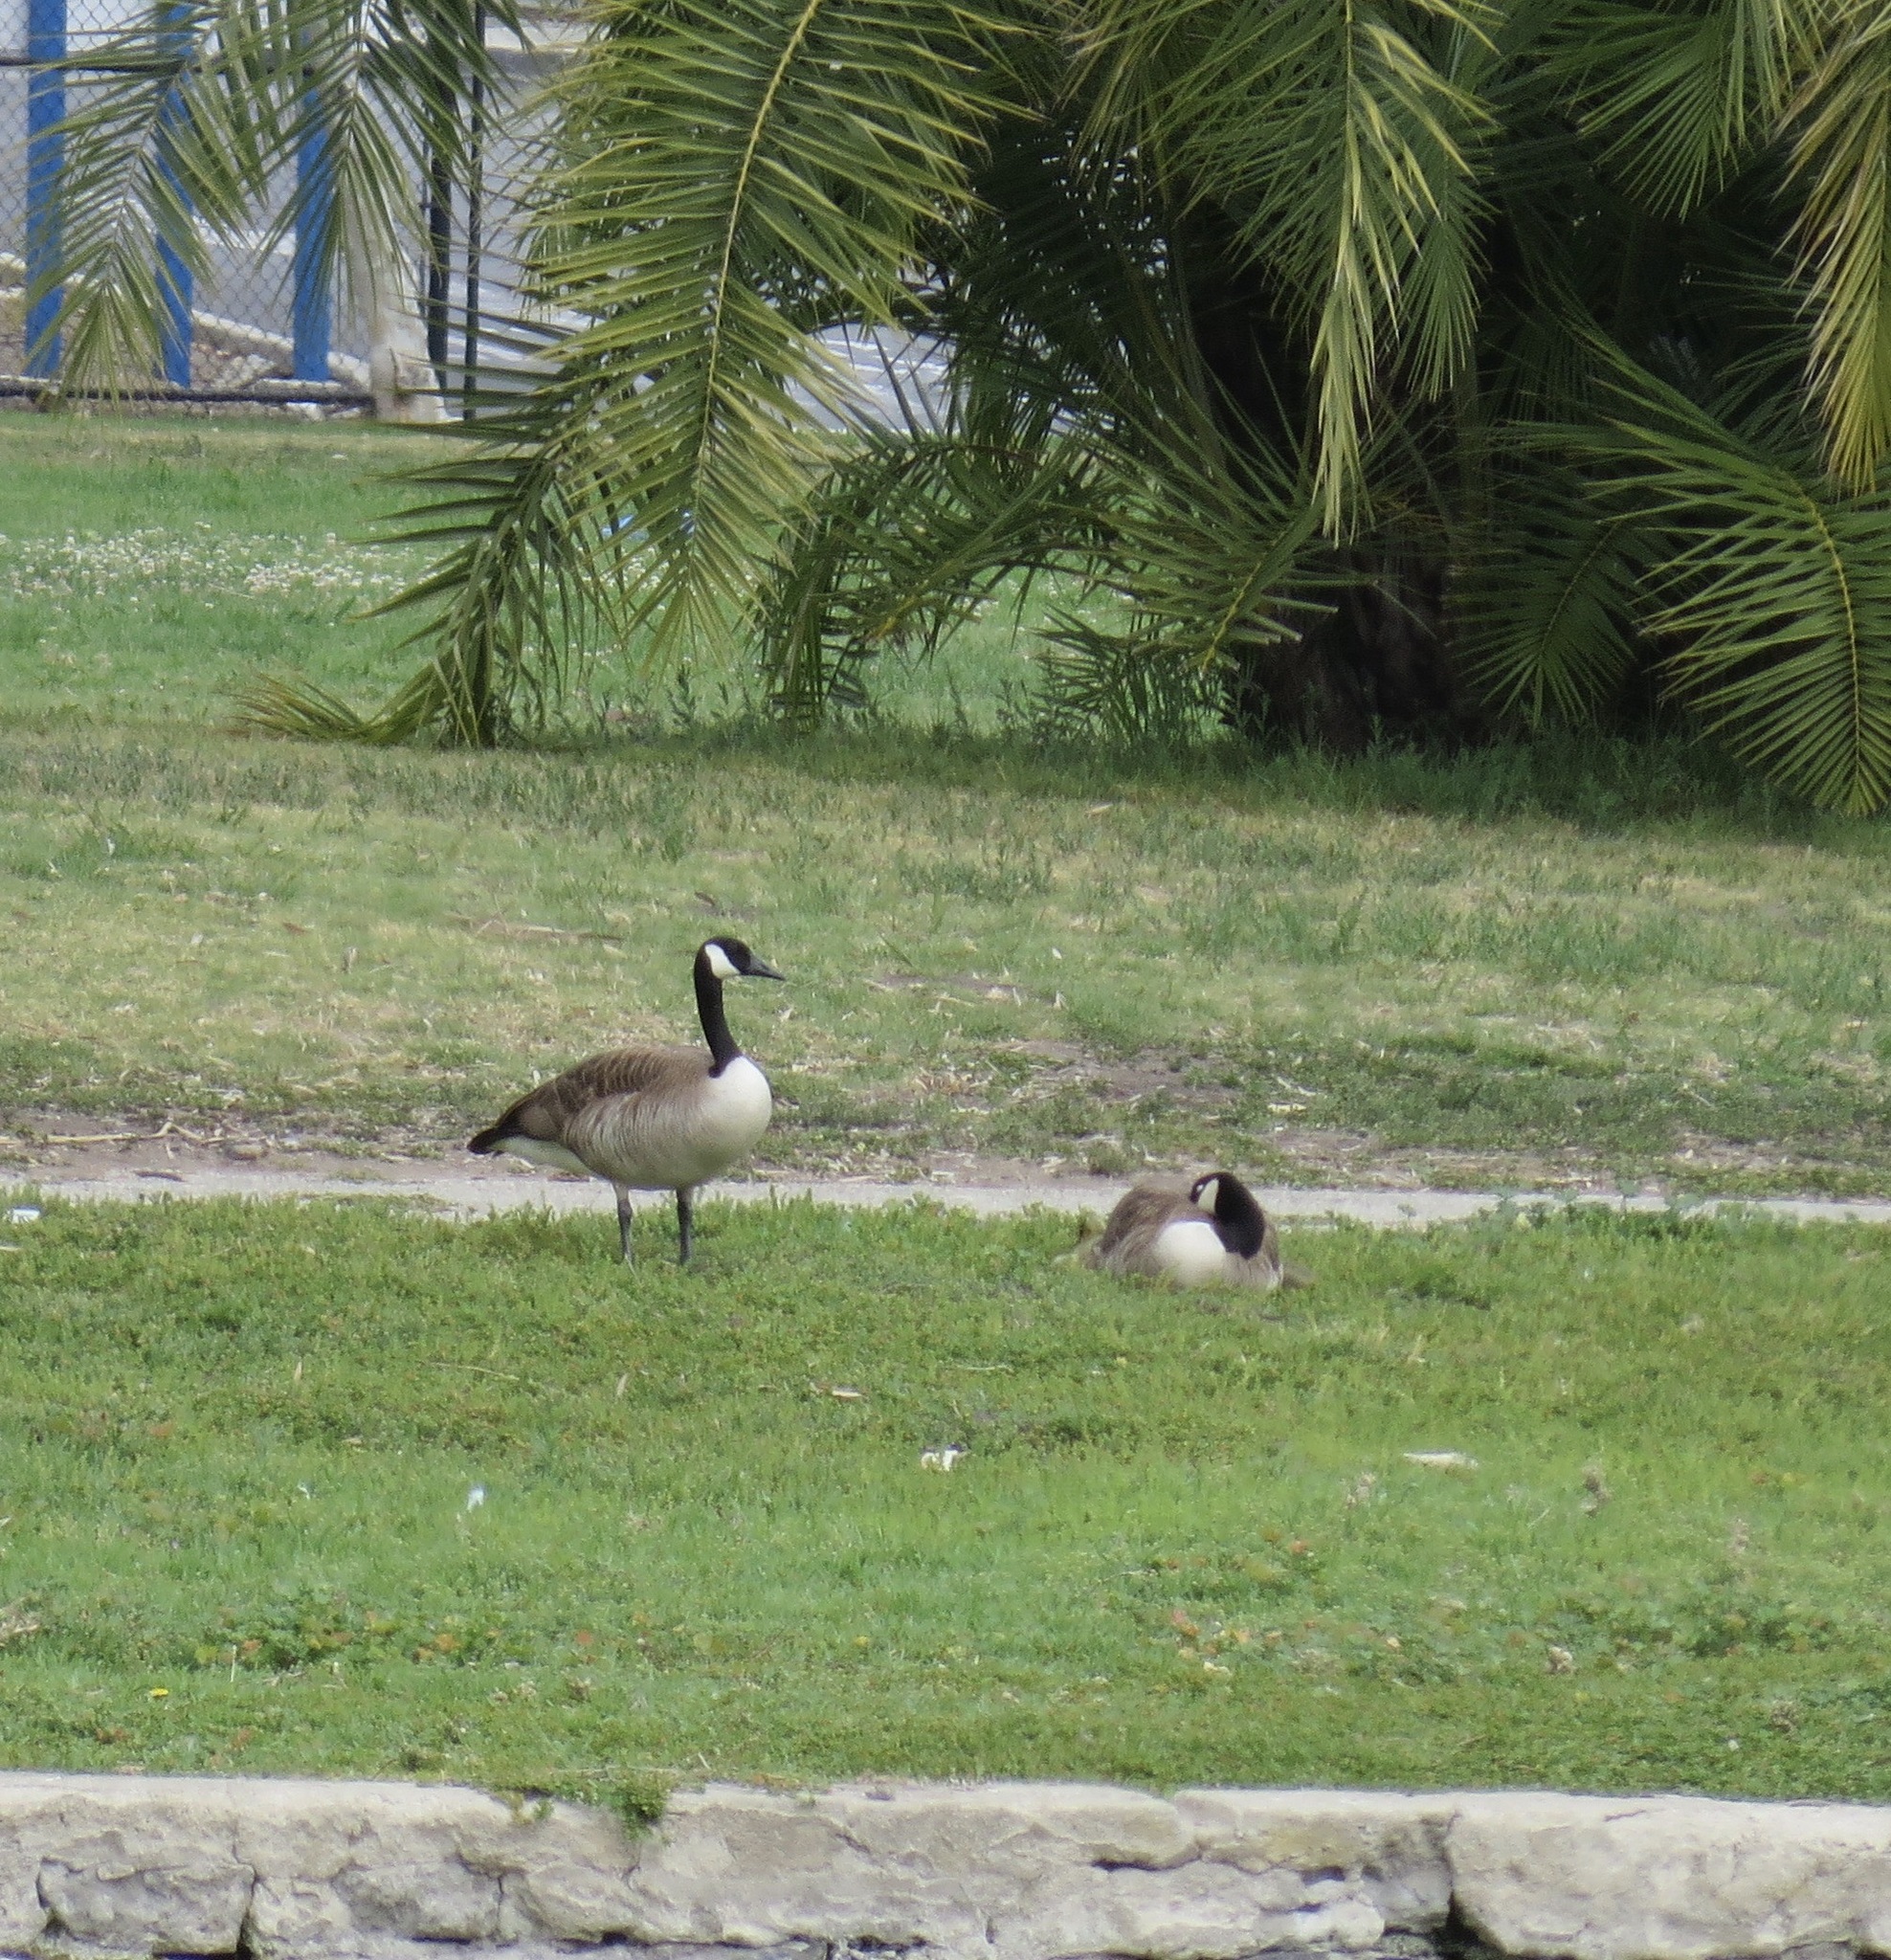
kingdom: Animalia
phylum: Chordata
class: Aves
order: Anseriformes
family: Anatidae
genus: Branta
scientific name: Branta canadensis
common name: Canada goose
